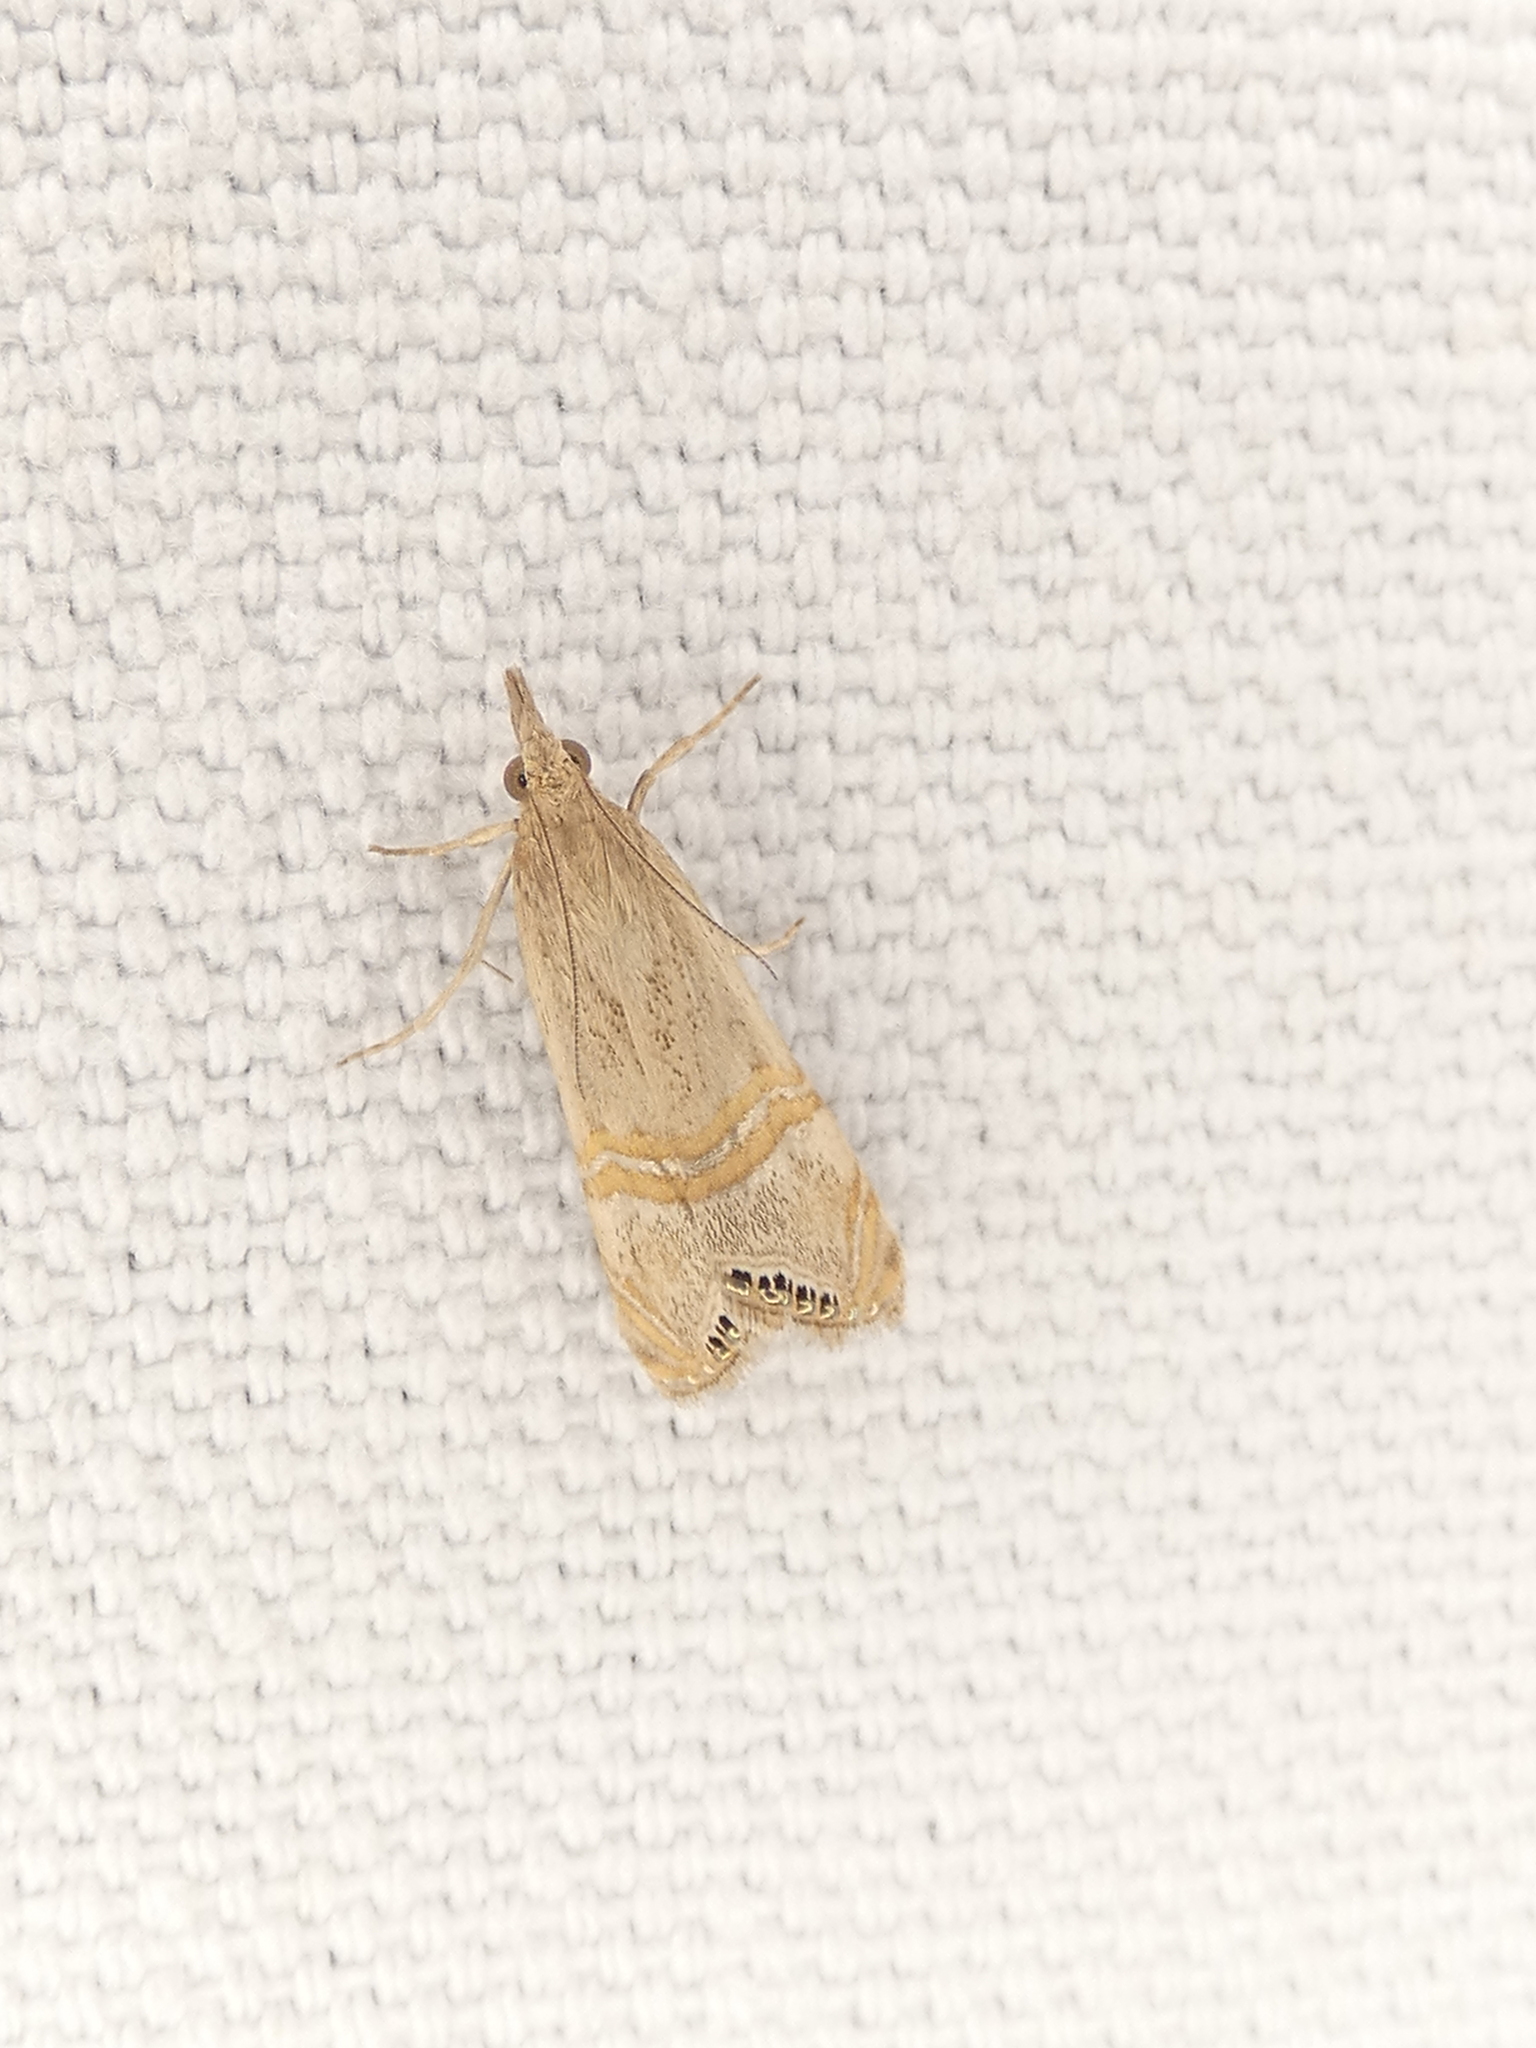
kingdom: Animalia
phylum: Arthropoda
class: Insecta
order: Lepidoptera
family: Crambidae
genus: Euchromius
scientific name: Euchromius ocellea
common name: Necklace veneer moth
